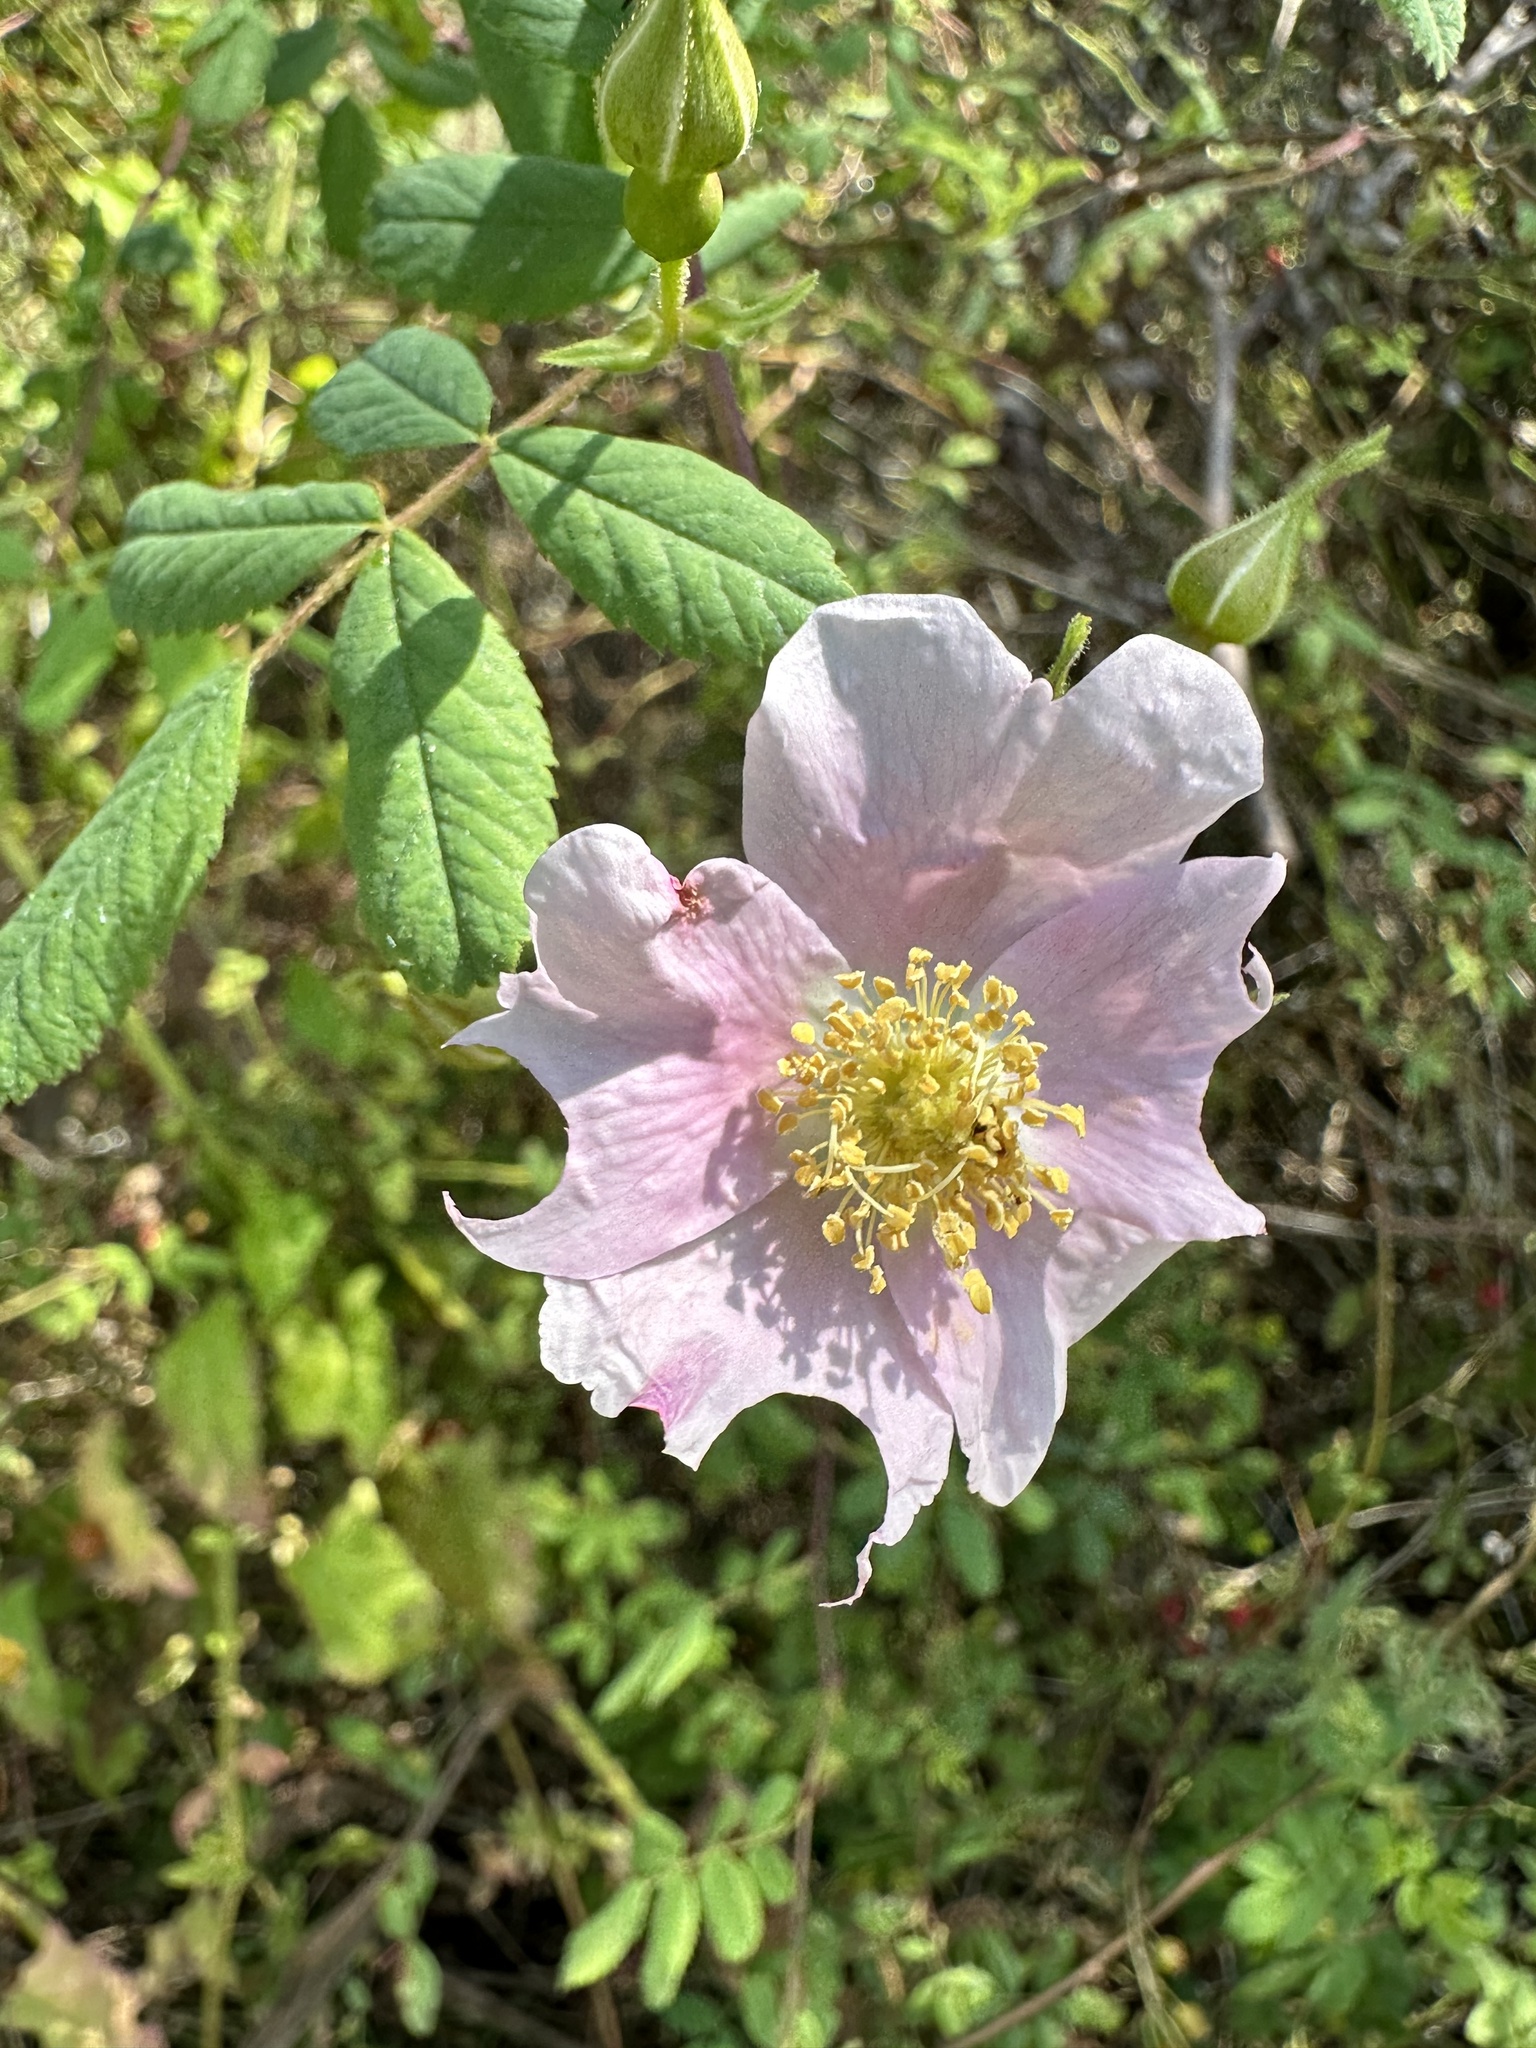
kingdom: Plantae
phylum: Tracheophyta
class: Magnoliopsida
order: Rosales
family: Rosaceae
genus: Rosa
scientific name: Rosa californica
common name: California rose
